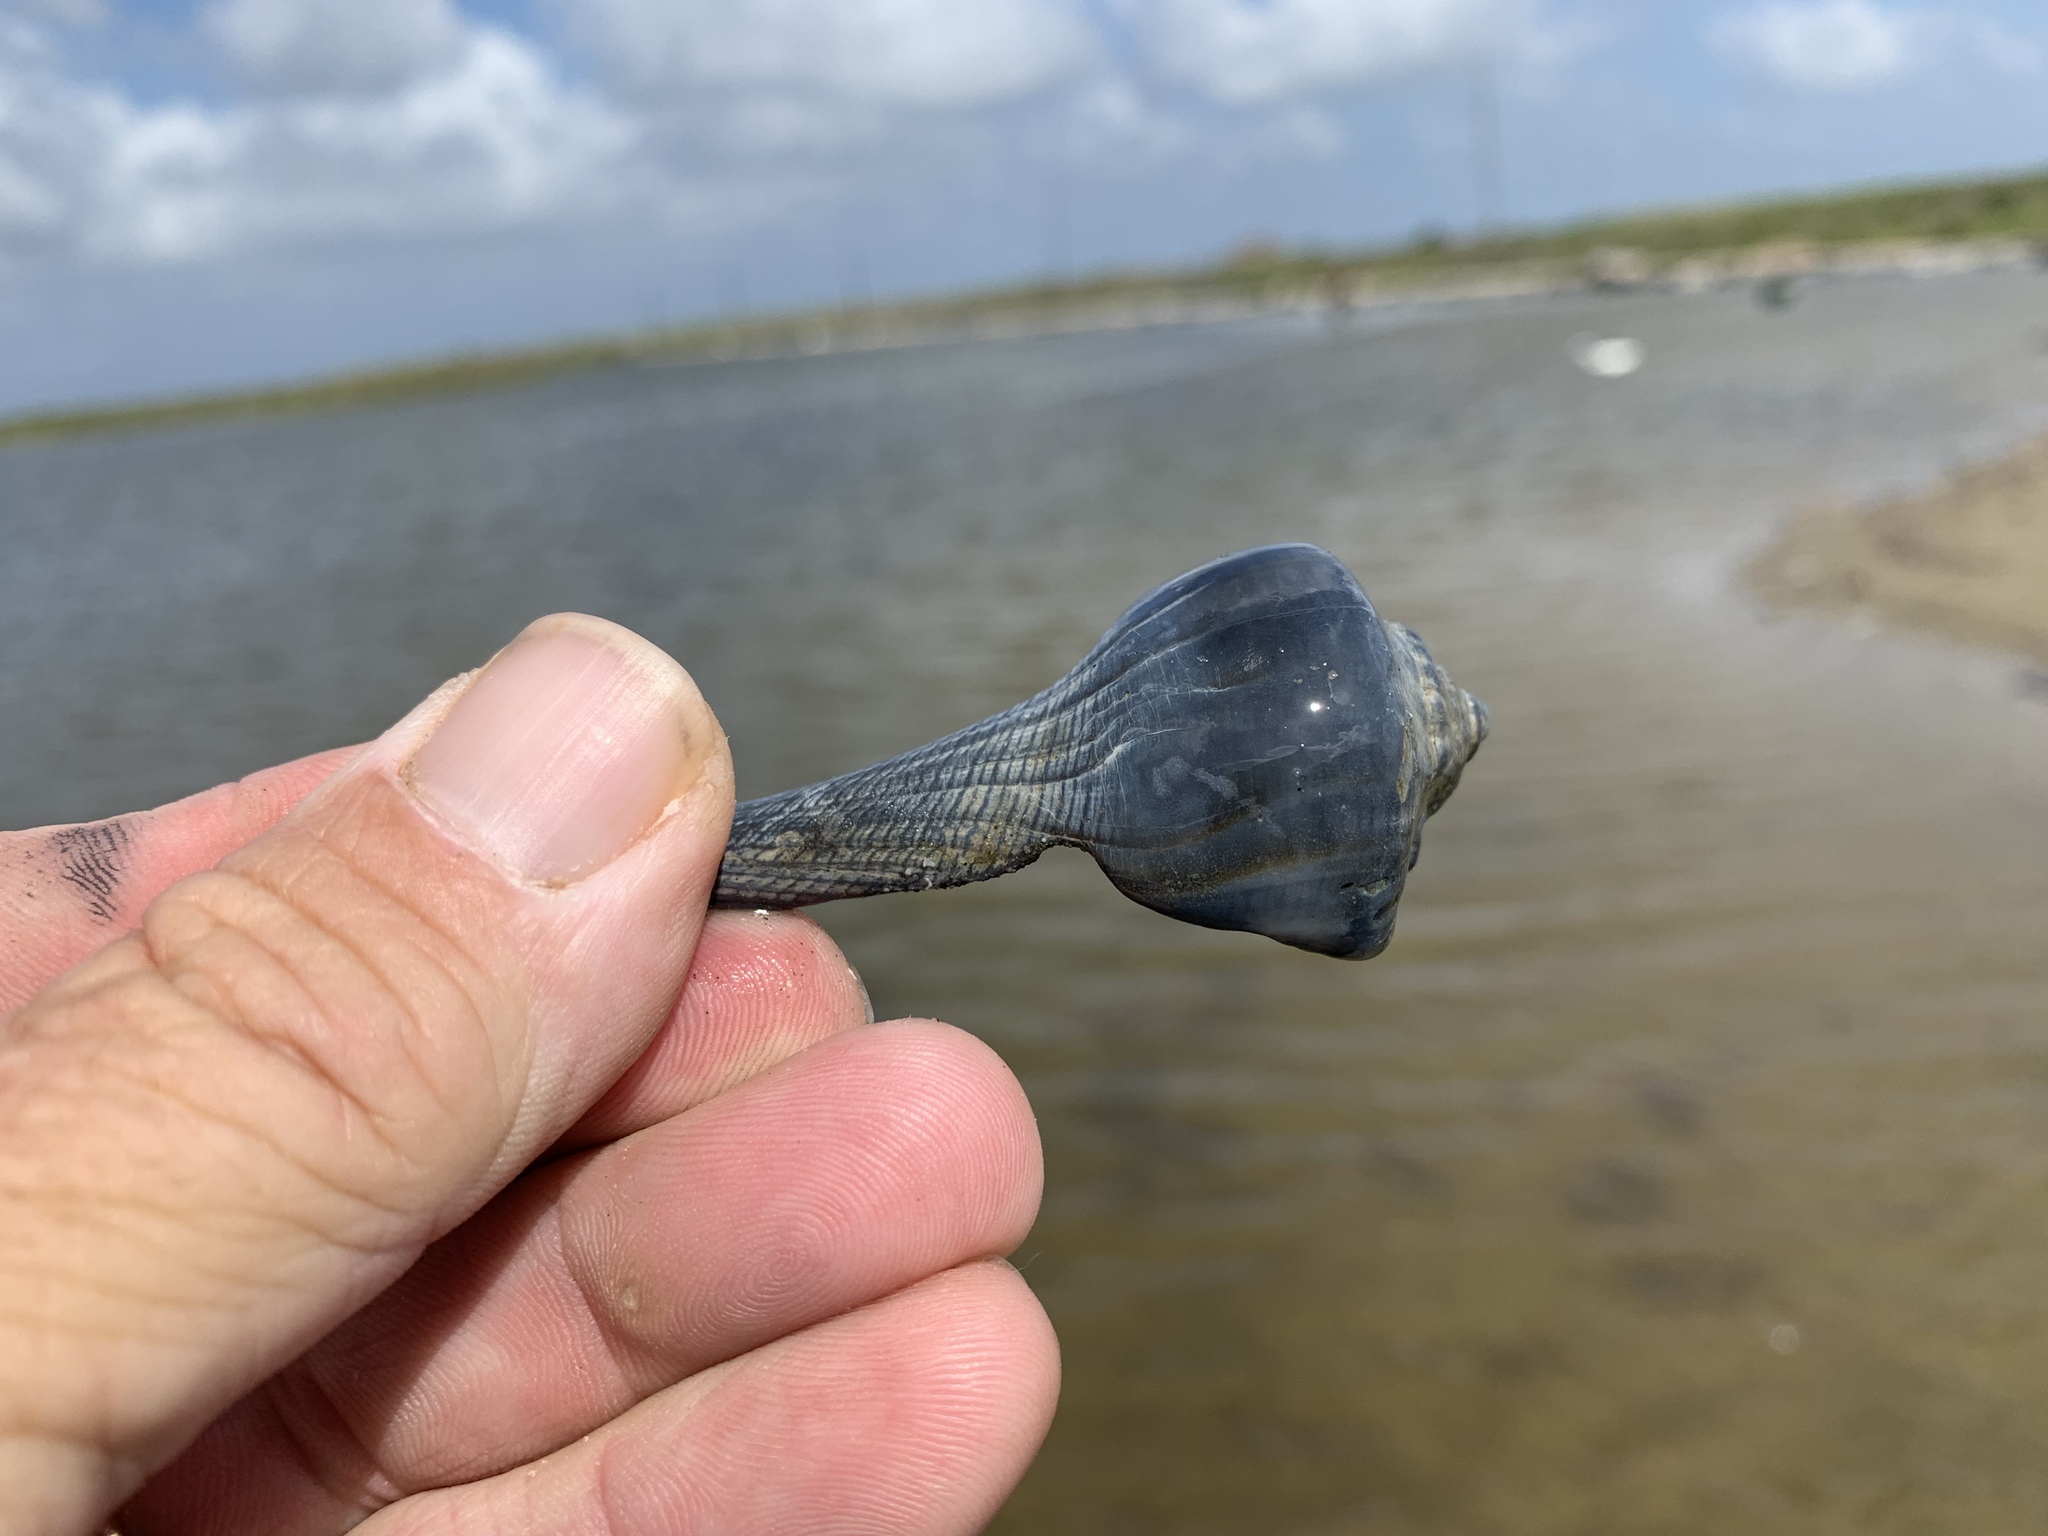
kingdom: Animalia
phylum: Mollusca
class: Gastropoda
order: Neogastropoda
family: Busyconidae
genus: Sinistrofulgur
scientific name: Sinistrofulgur pulleyi
